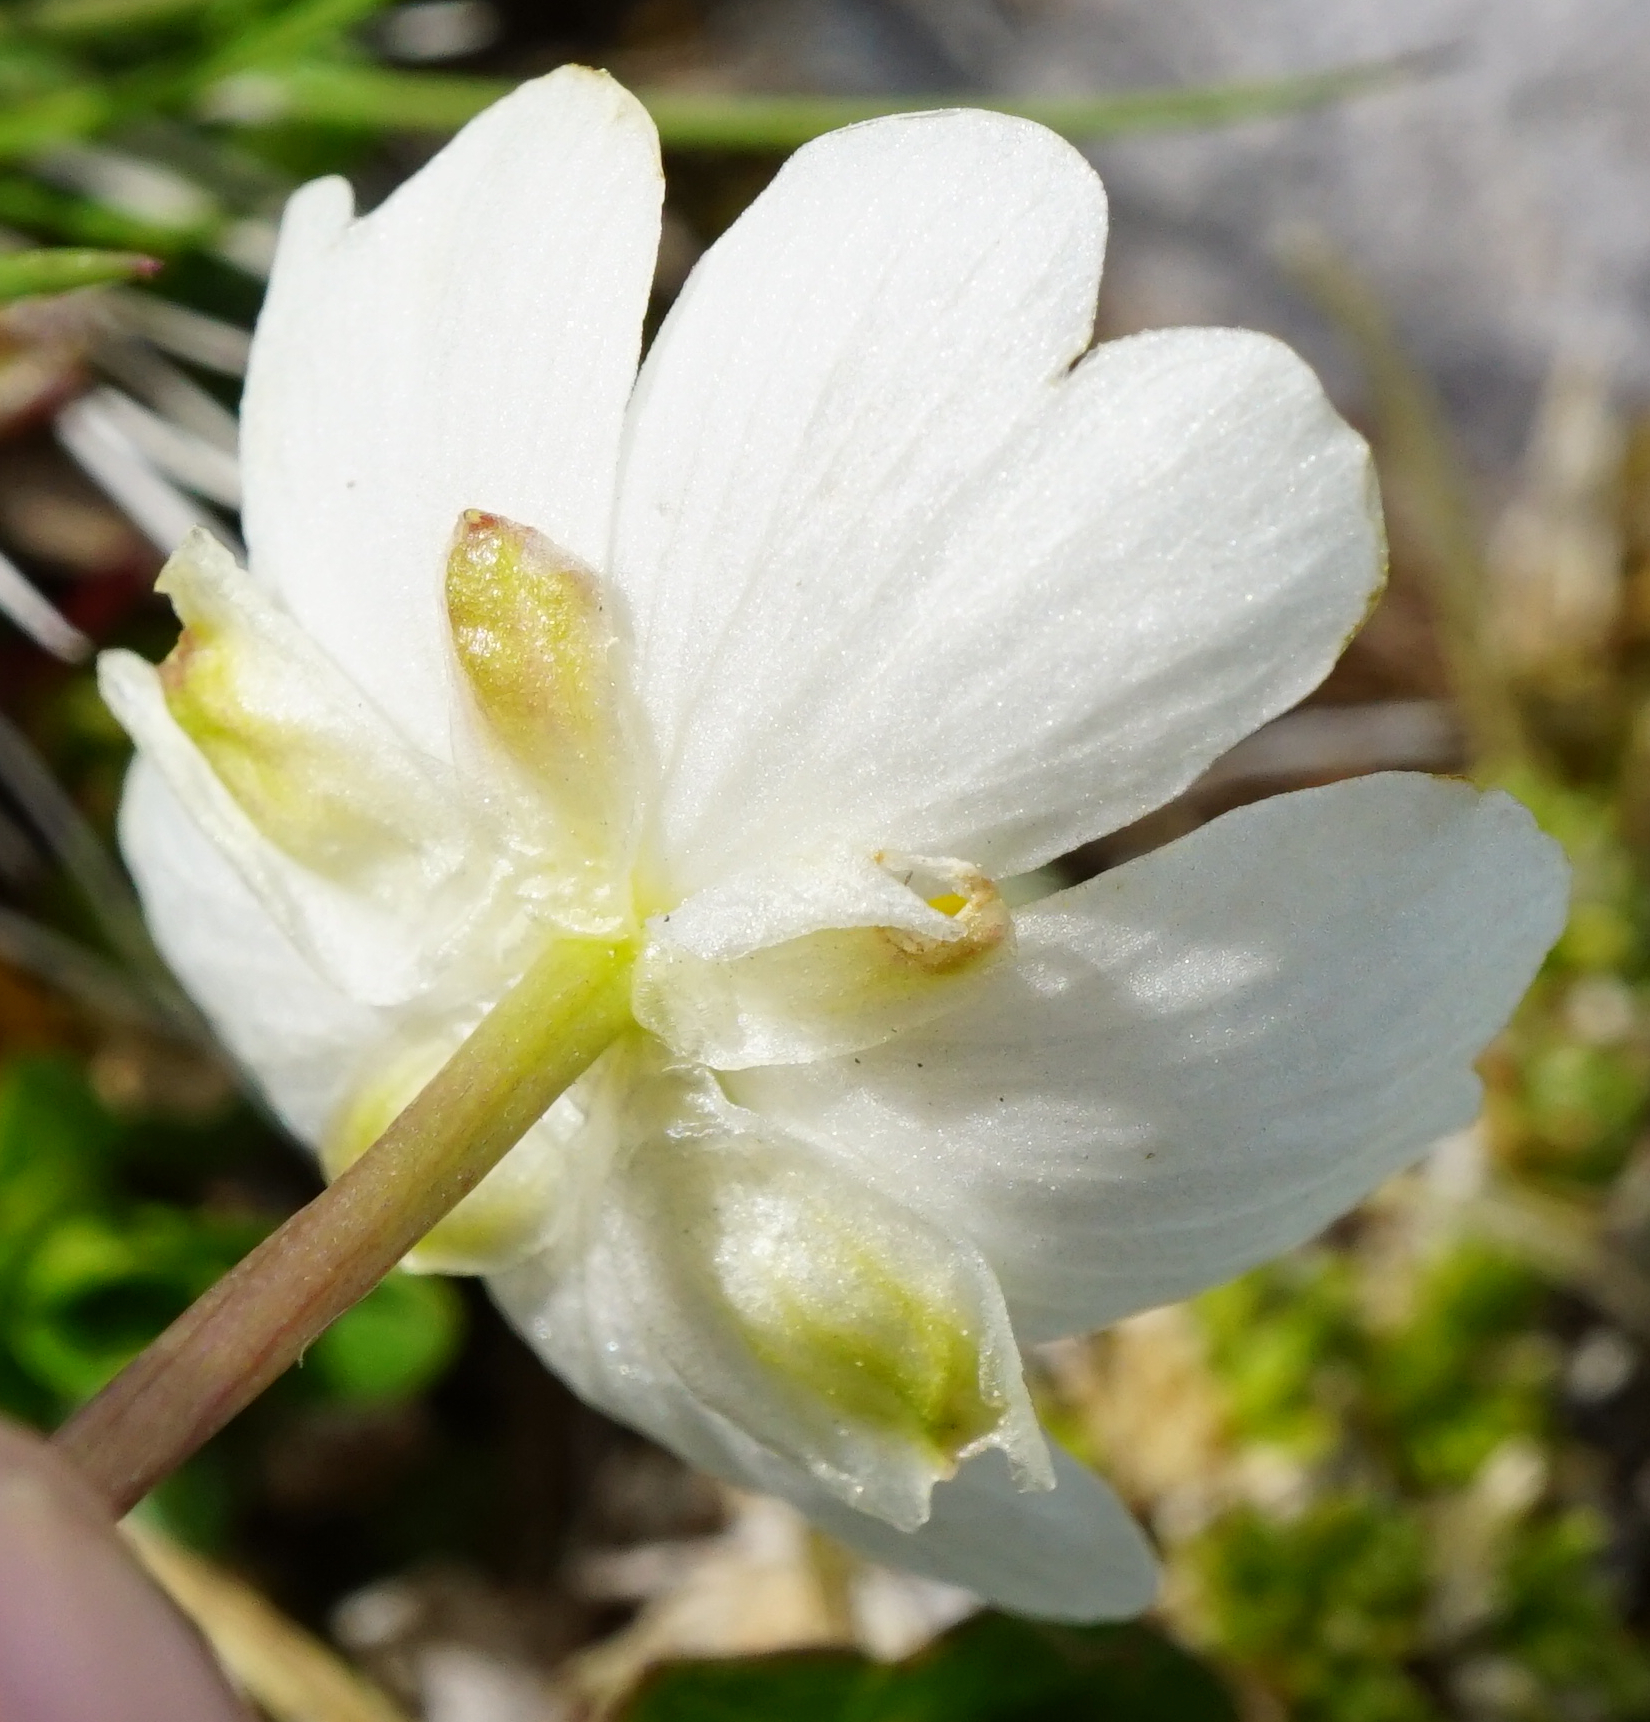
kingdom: Plantae
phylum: Tracheophyta
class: Magnoliopsida
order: Ranunculales
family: Ranunculaceae
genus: Ranunculus
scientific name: Ranunculus alpestris
